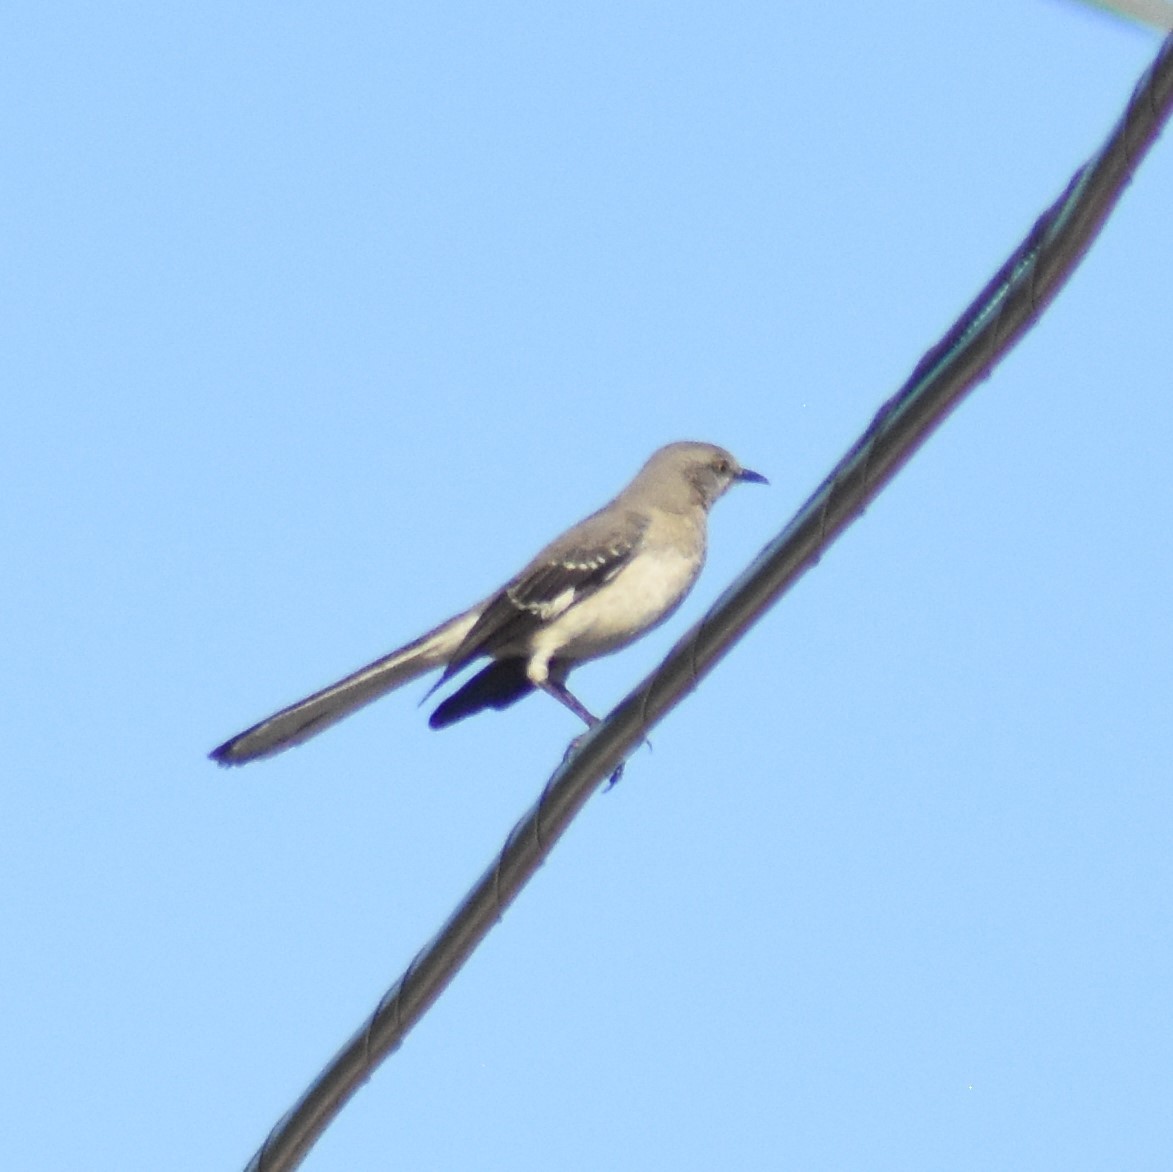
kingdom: Animalia
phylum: Chordata
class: Aves
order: Passeriformes
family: Mimidae
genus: Mimus
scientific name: Mimus polyglottos
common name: Northern mockingbird
